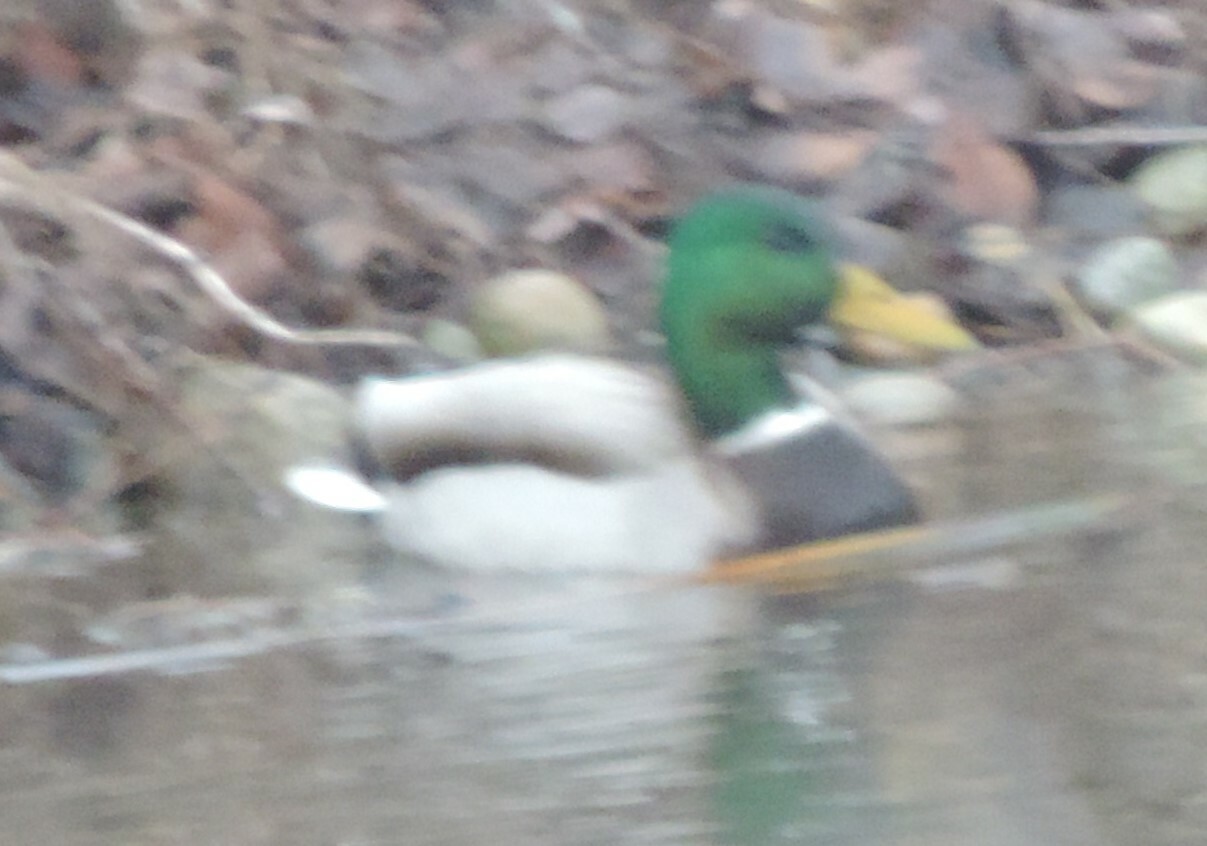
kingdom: Animalia
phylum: Chordata
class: Aves
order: Anseriformes
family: Anatidae
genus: Anas
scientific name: Anas platyrhynchos
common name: Mallard
